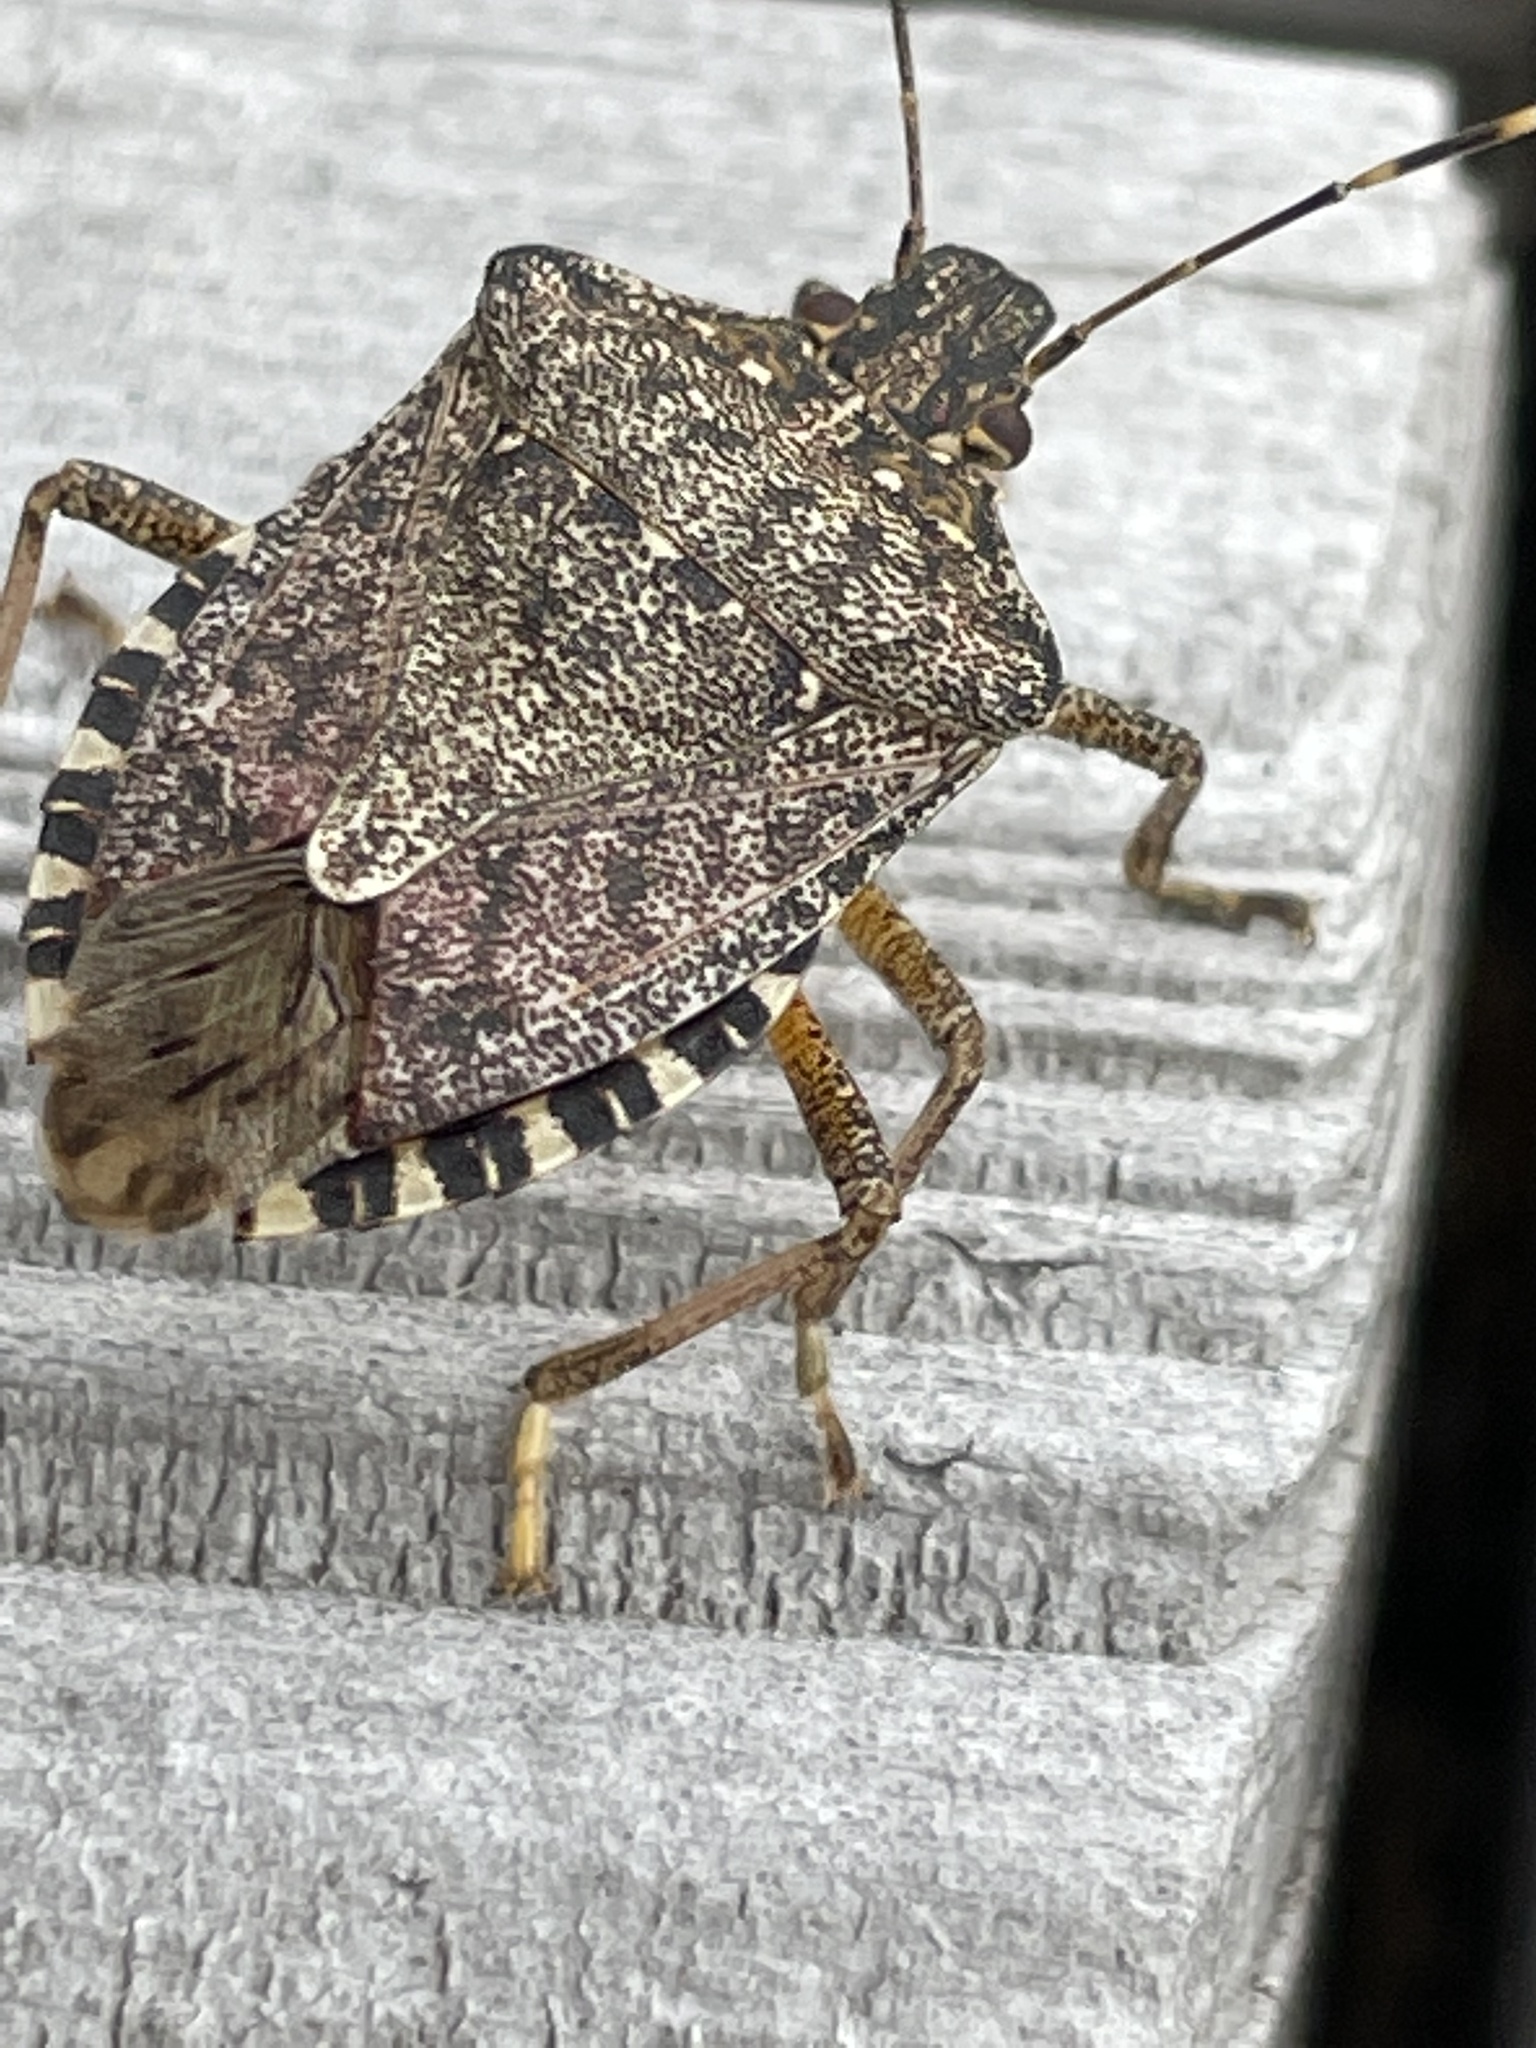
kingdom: Animalia
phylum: Arthropoda
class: Insecta
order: Hemiptera
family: Pentatomidae
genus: Halyomorpha
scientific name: Halyomorpha halys
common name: Brown marmorated stink bug
